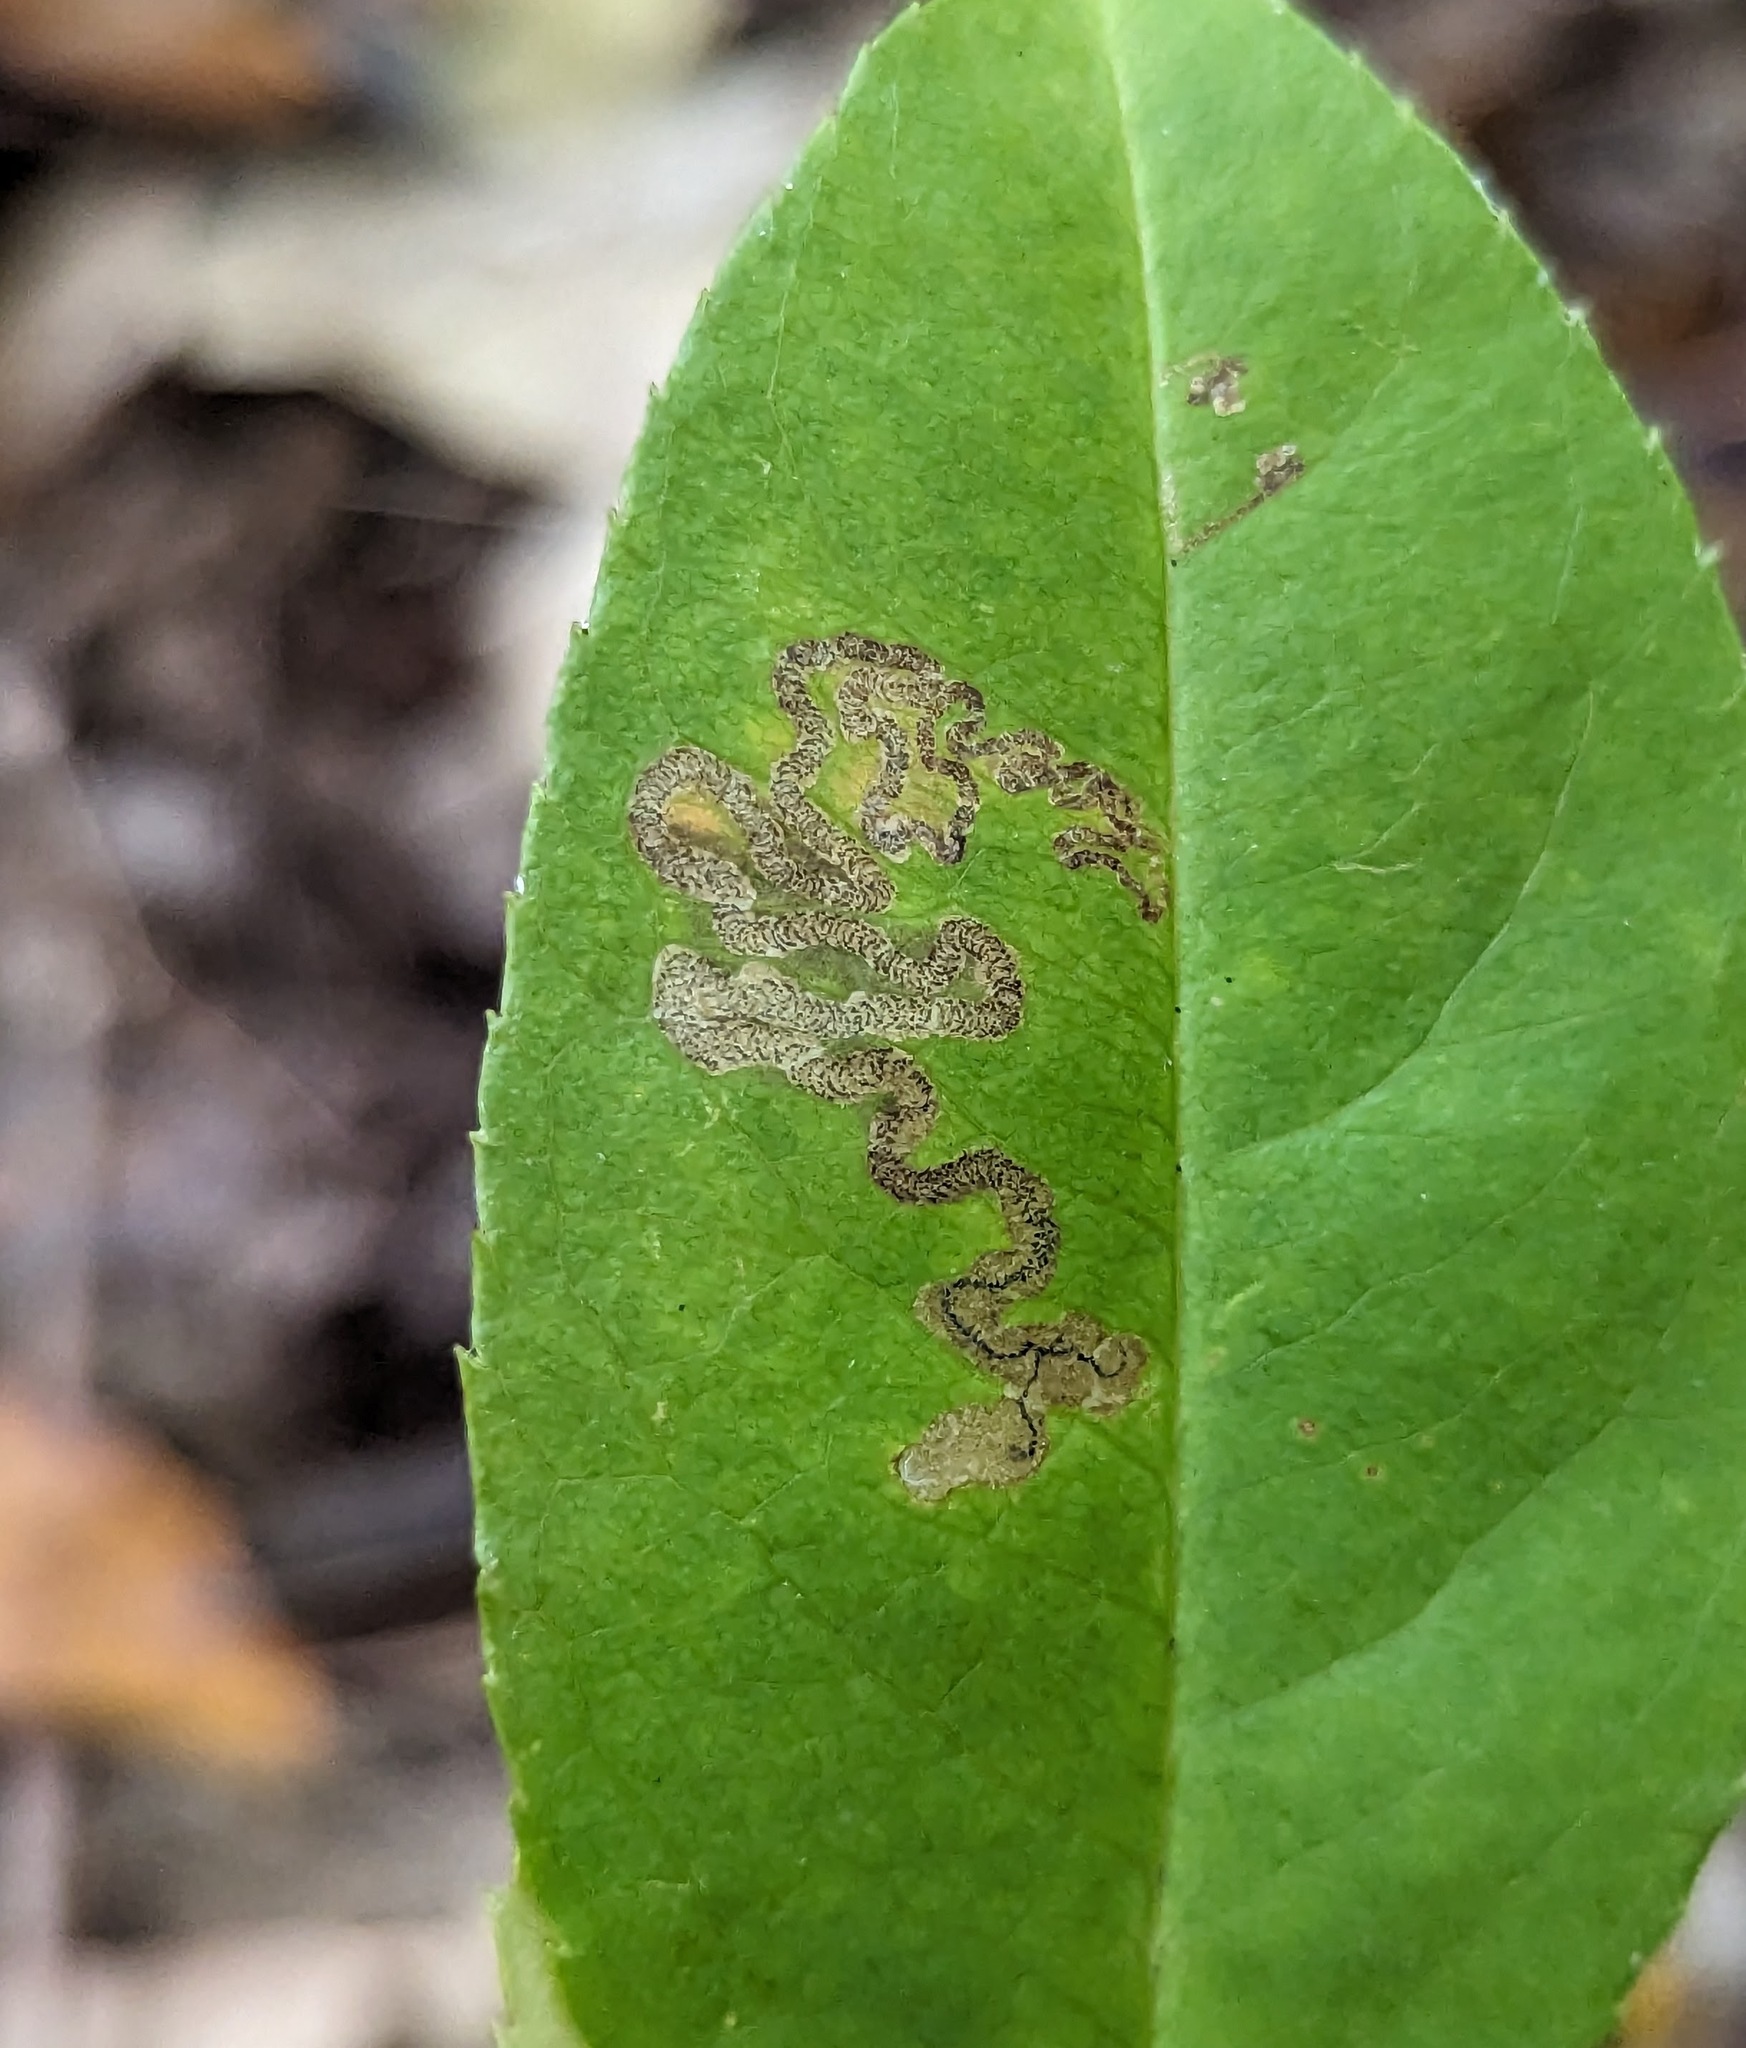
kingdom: Animalia
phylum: Arthropoda
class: Insecta
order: Lepidoptera
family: Nepticulidae
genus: Stigmella
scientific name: Stigmella prunifoliella
